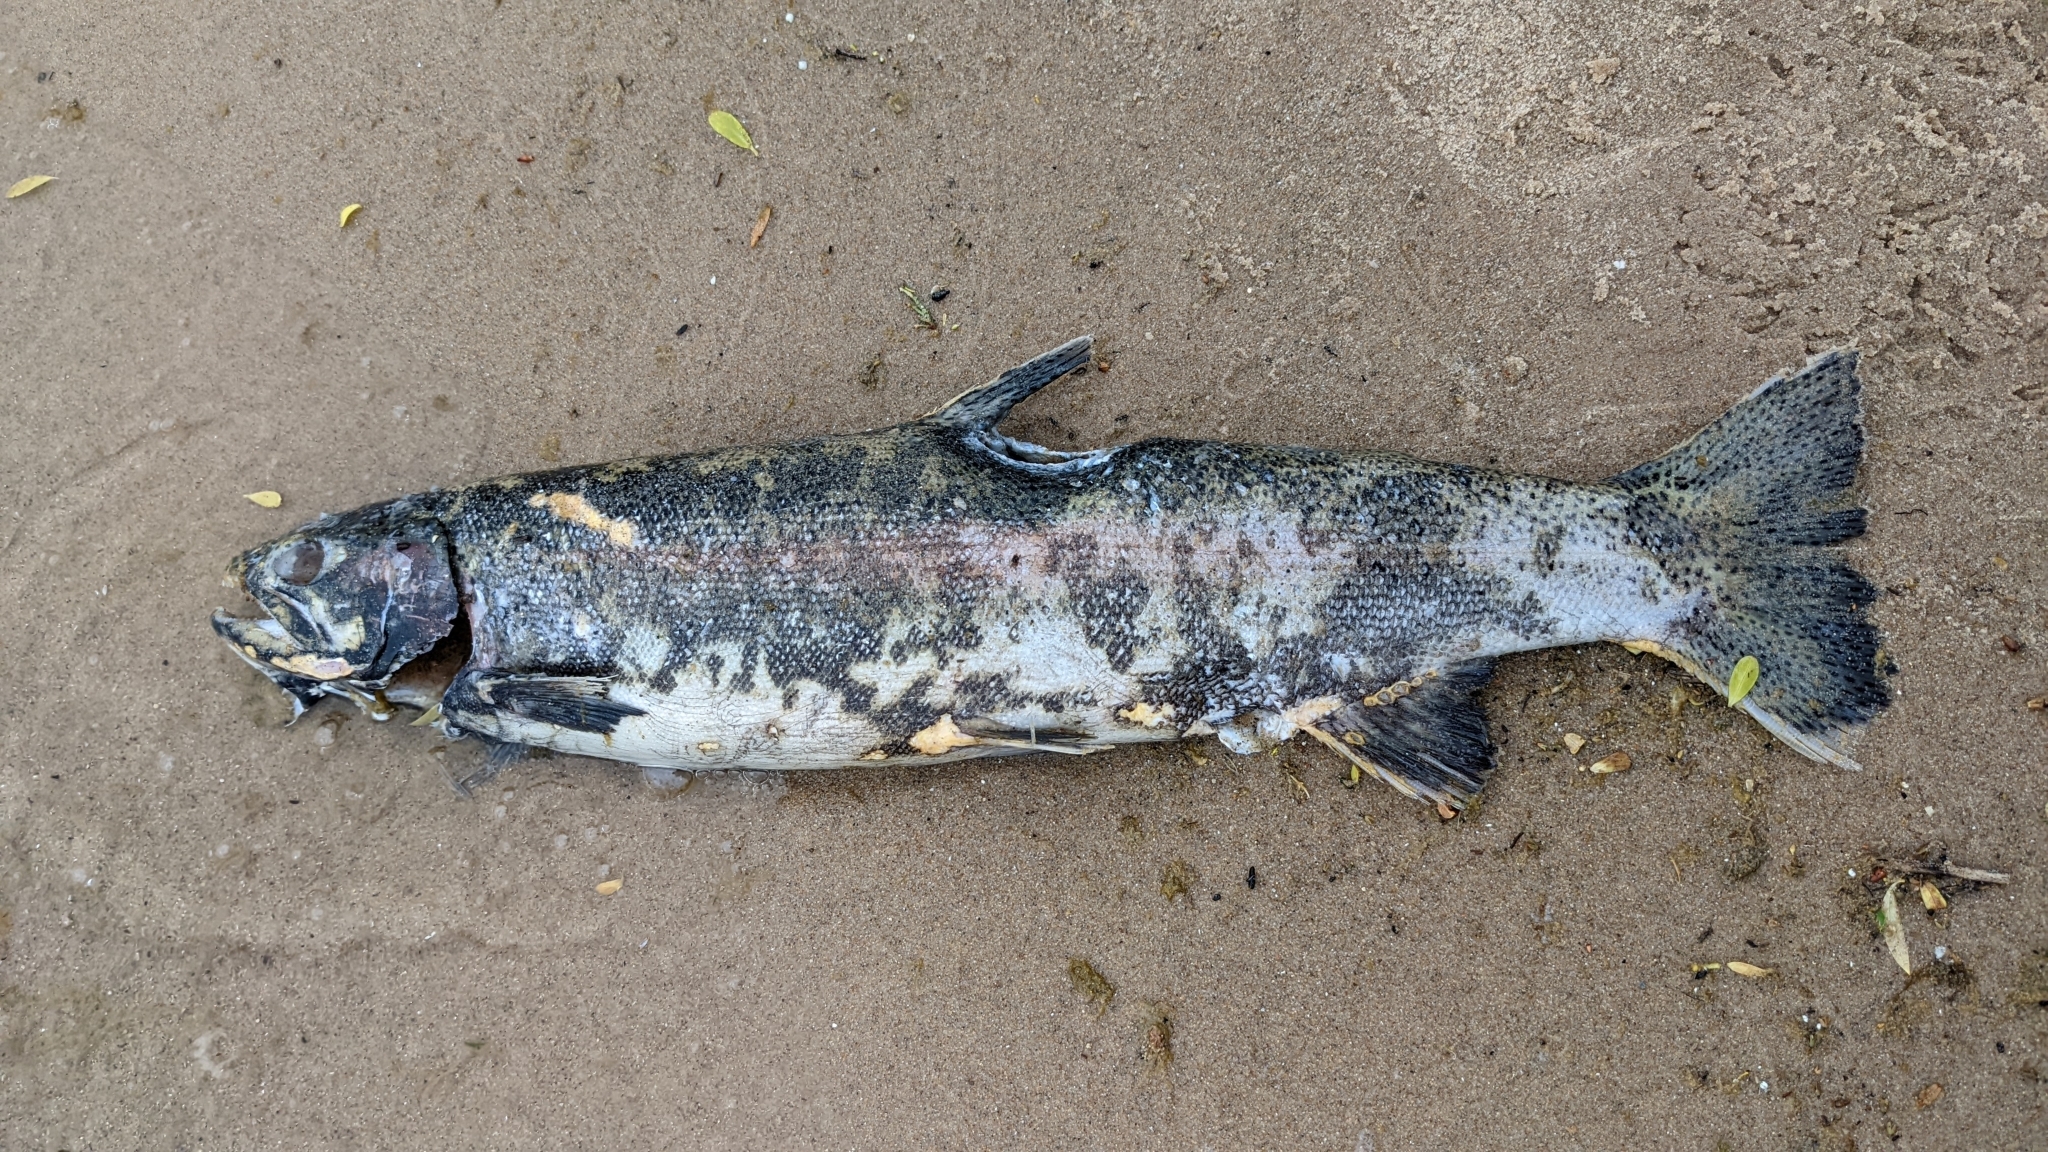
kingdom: Animalia
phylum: Chordata
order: Salmoniformes
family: Salmonidae
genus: Oncorhynchus
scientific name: Oncorhynchus mykiss
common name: Rainbow trout
